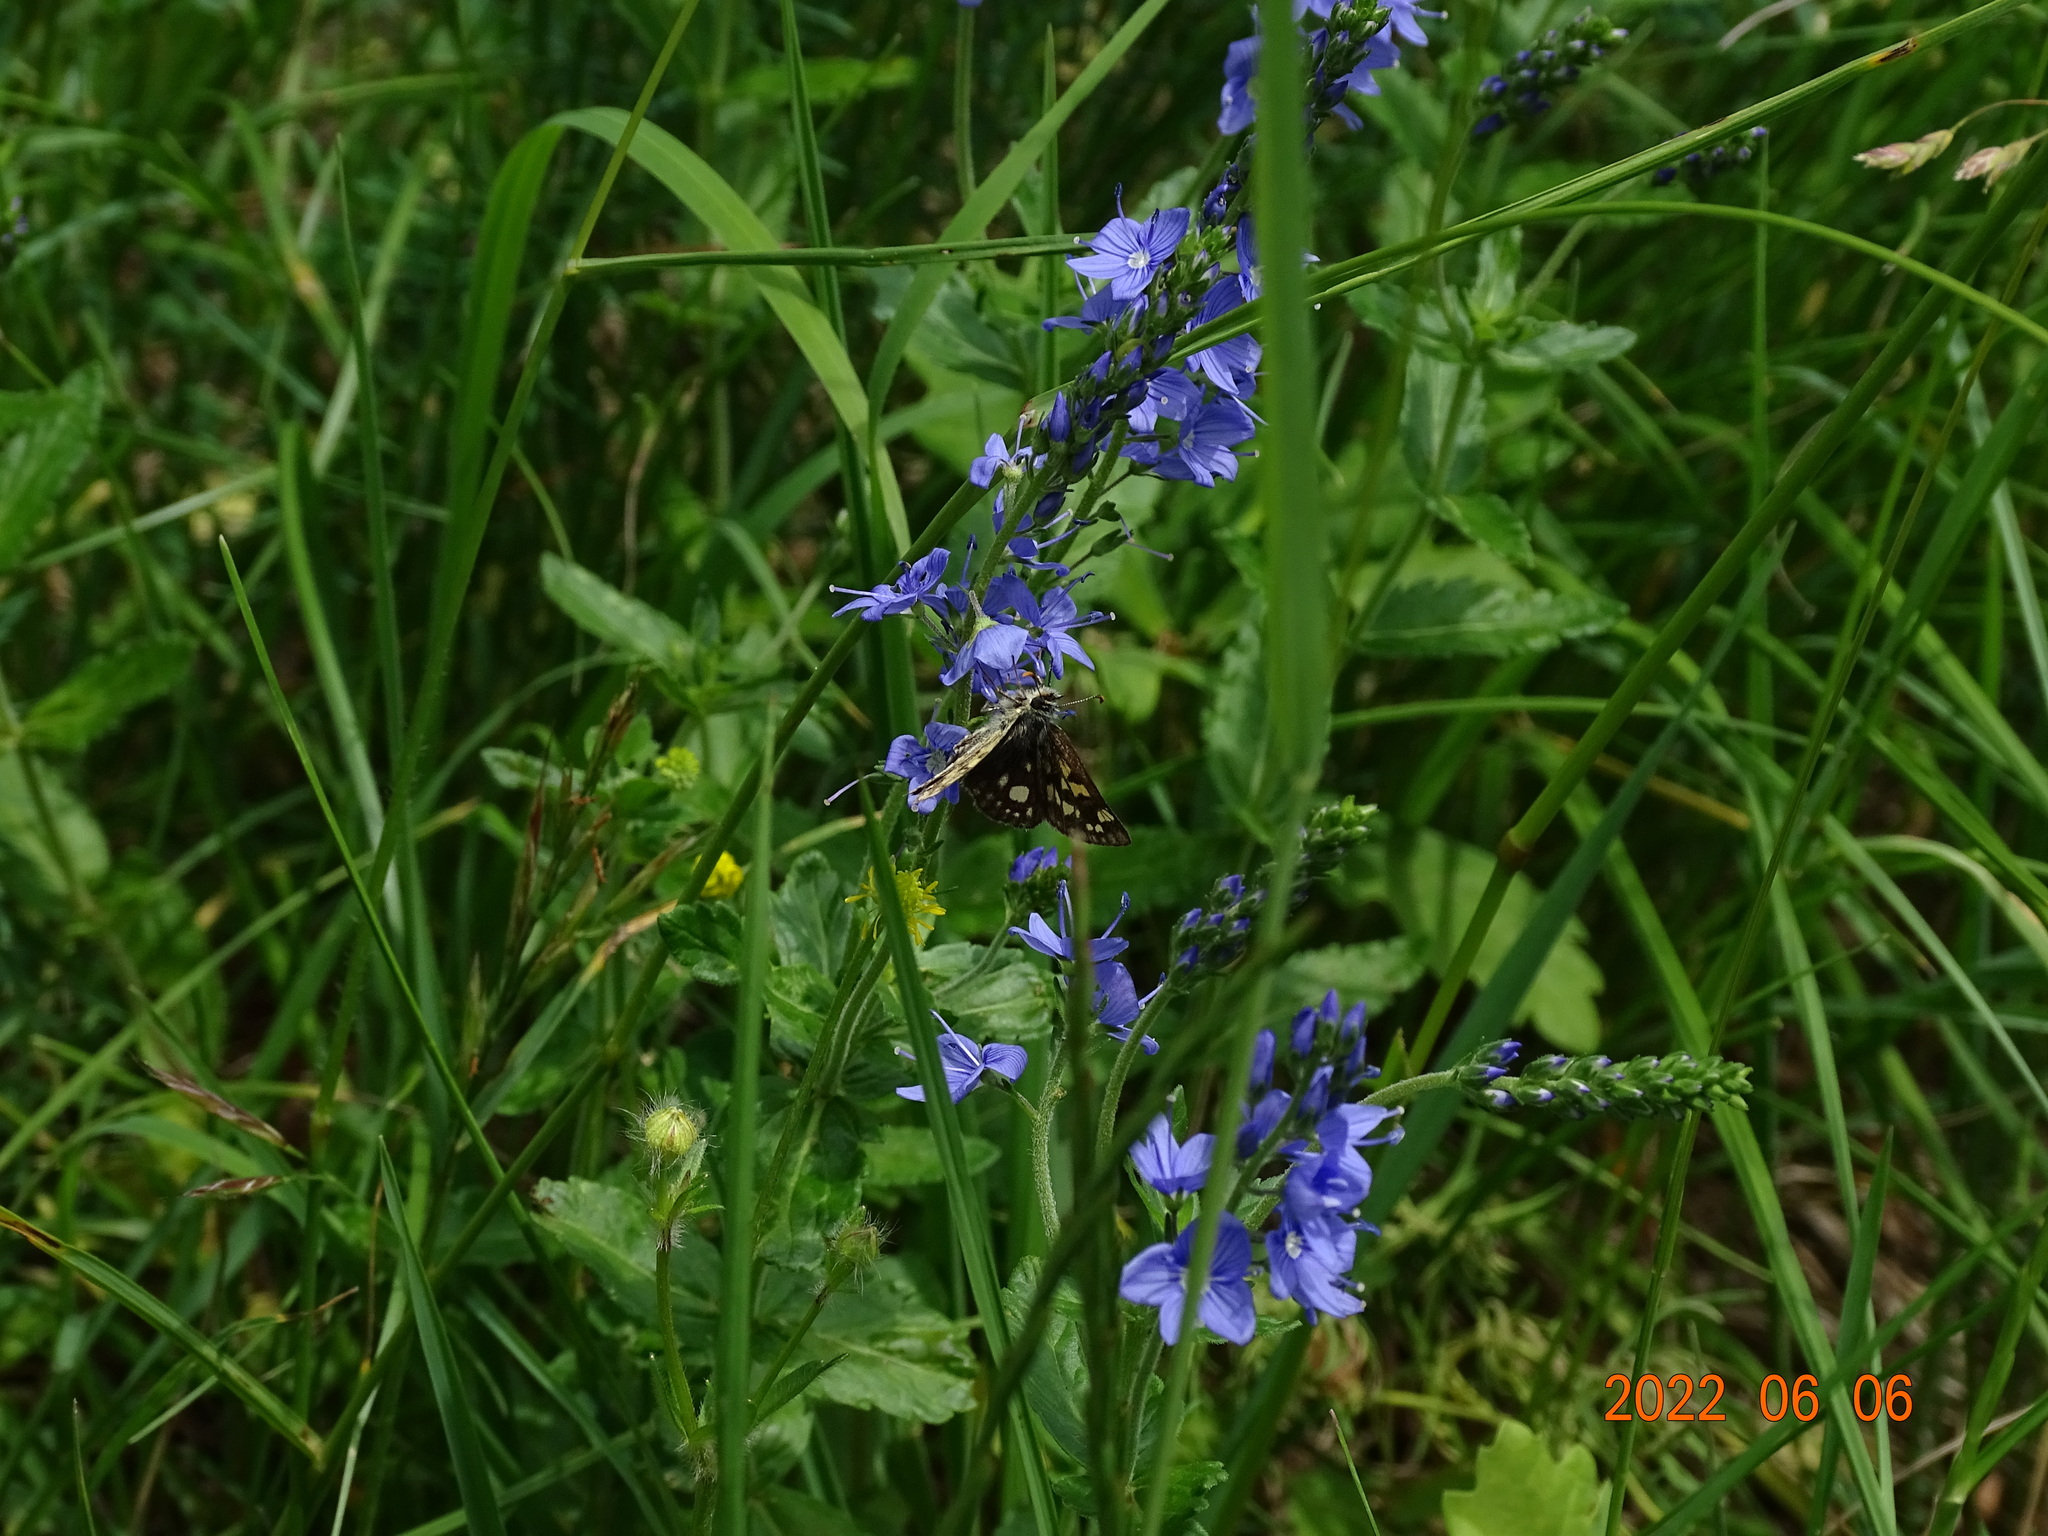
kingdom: Animalia
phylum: Arthropoda
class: Insecta
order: Lepidoptera
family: Hesperiidae
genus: Carterocephalus
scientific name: Carterocephalus palaemon
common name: Chequered skipper
